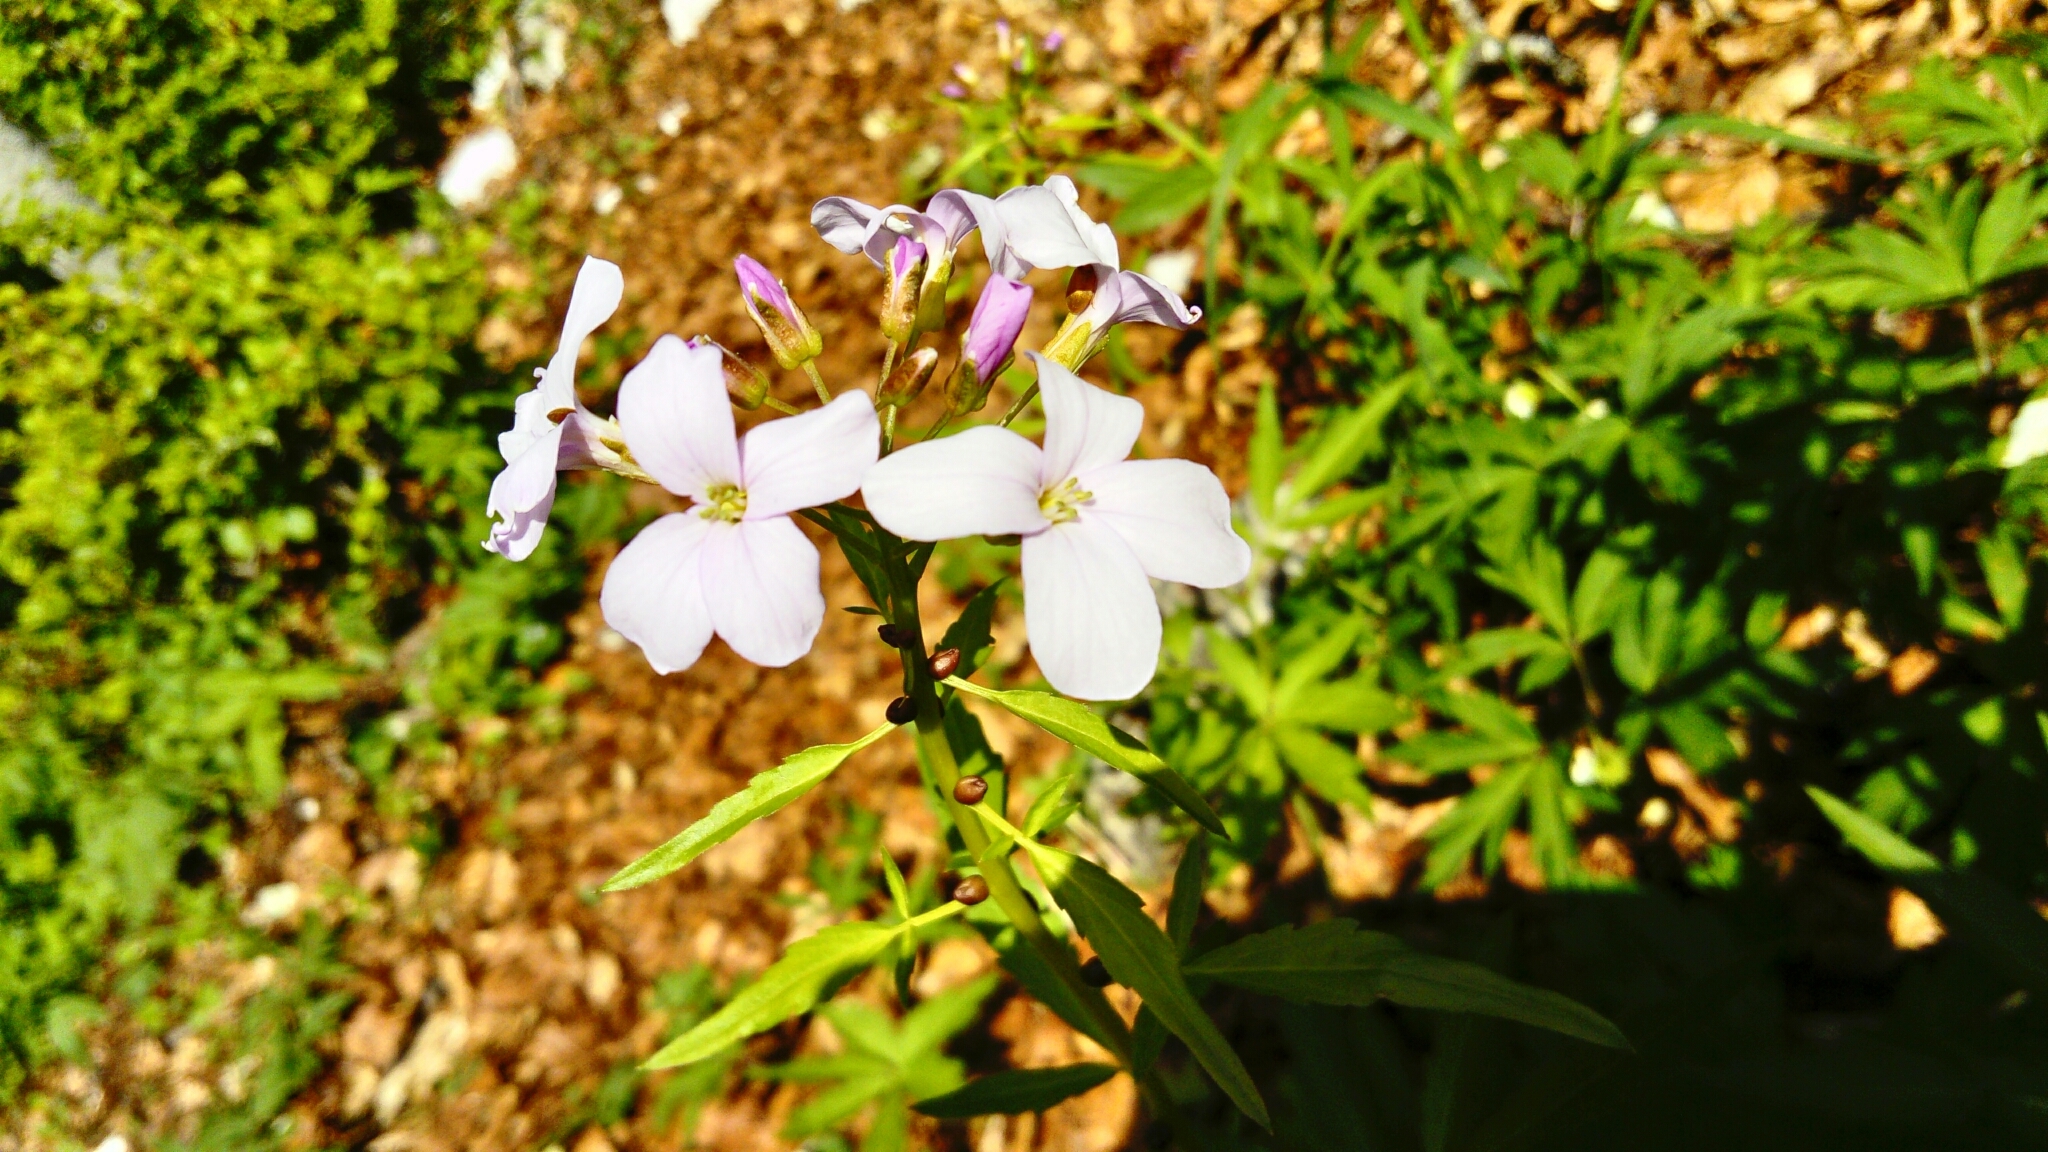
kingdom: Plantae
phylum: Tracheophyta
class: Magnoliopsida
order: Brassicales
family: Brassicaceae
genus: Cardamine
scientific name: Cardamine bulbifera
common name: Coralroot bittercress
